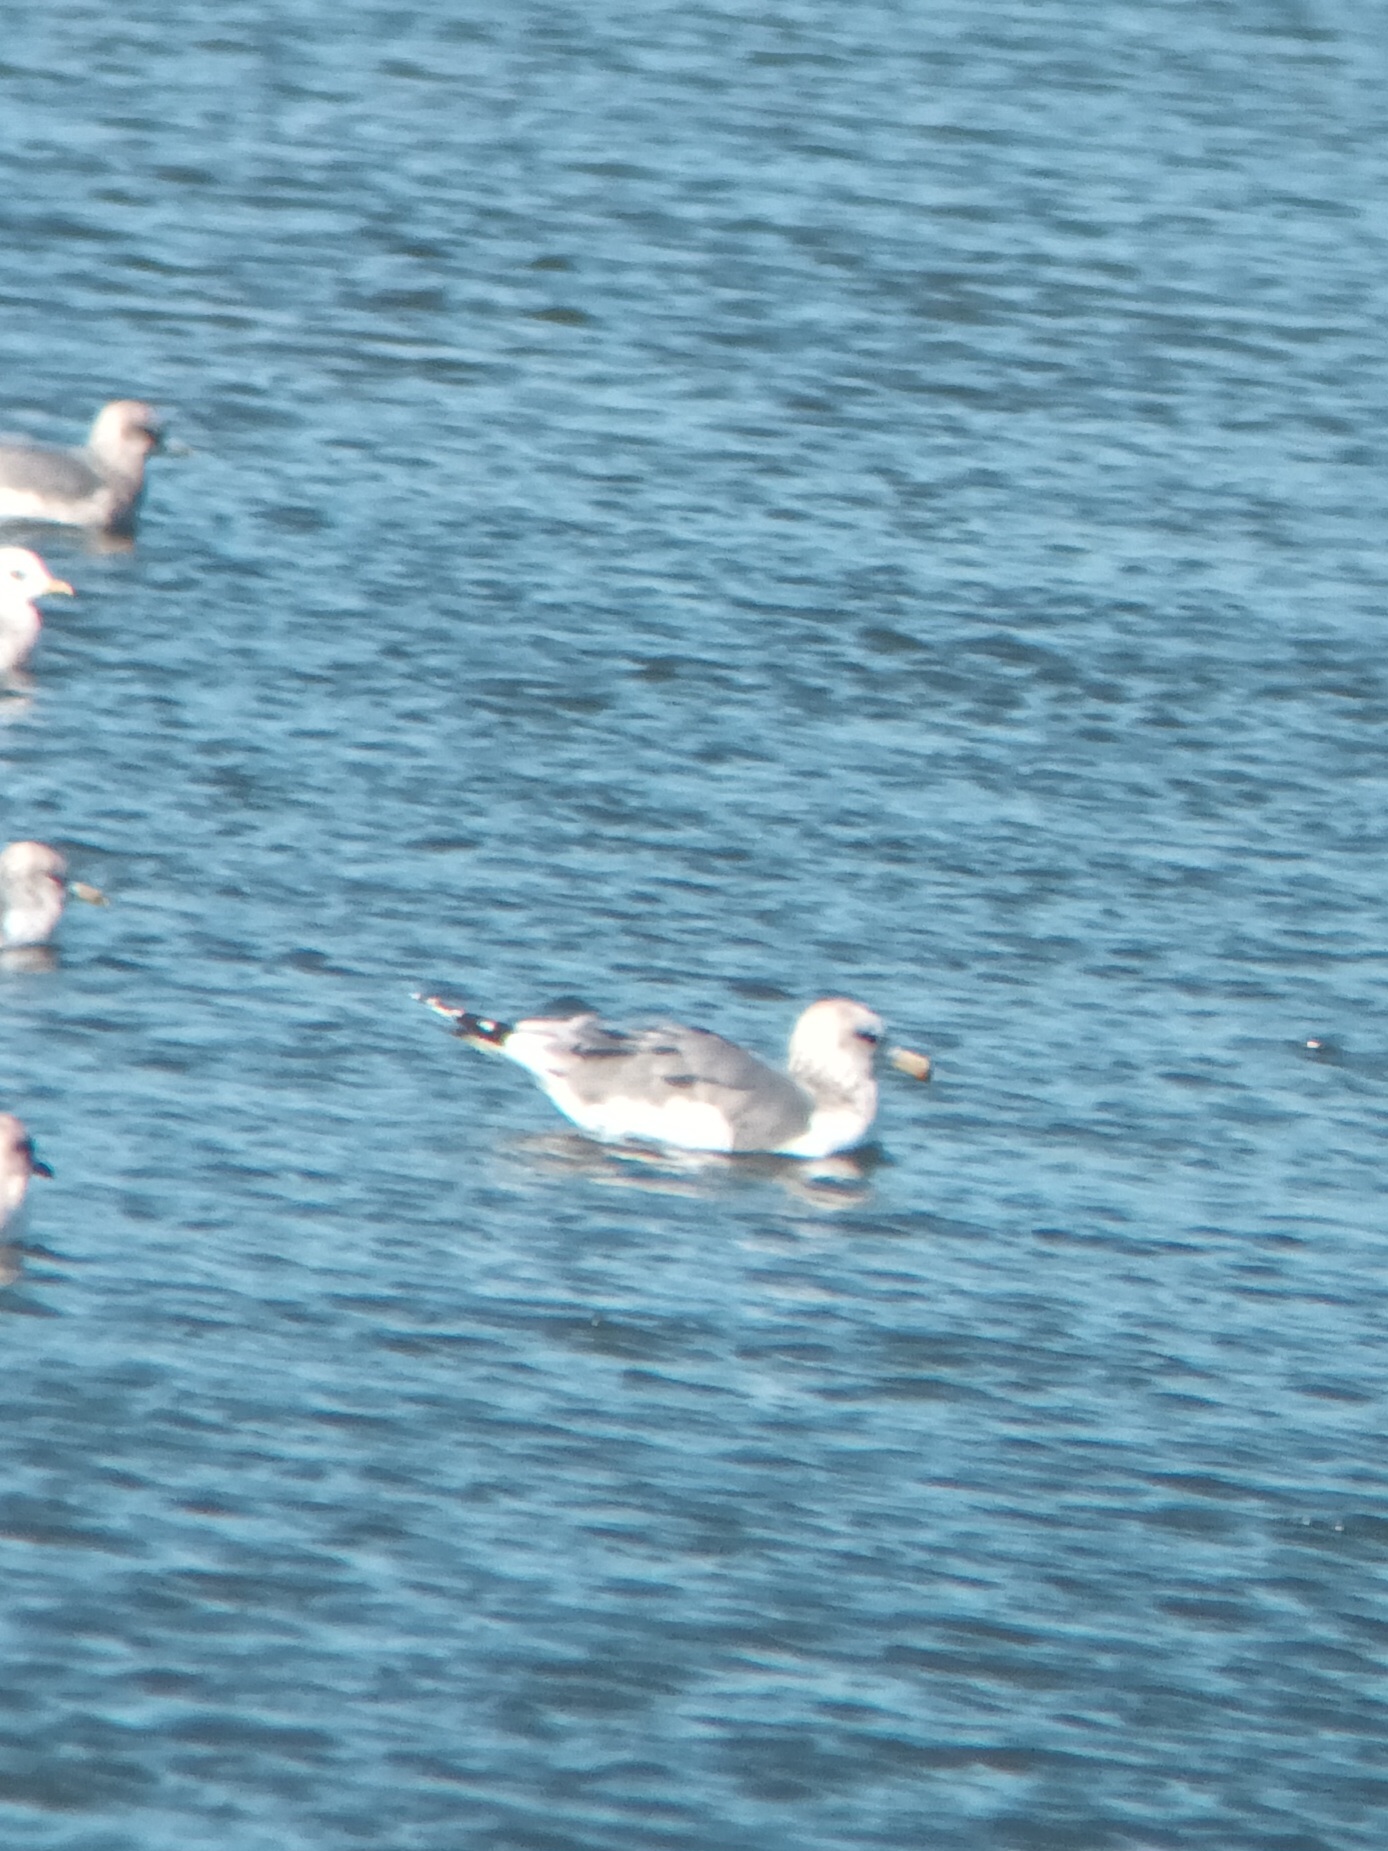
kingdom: Animalia
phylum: Chordata
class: Aves
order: Charadriiformes
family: Laridae
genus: Larus
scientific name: Larus californicus
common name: California gull
